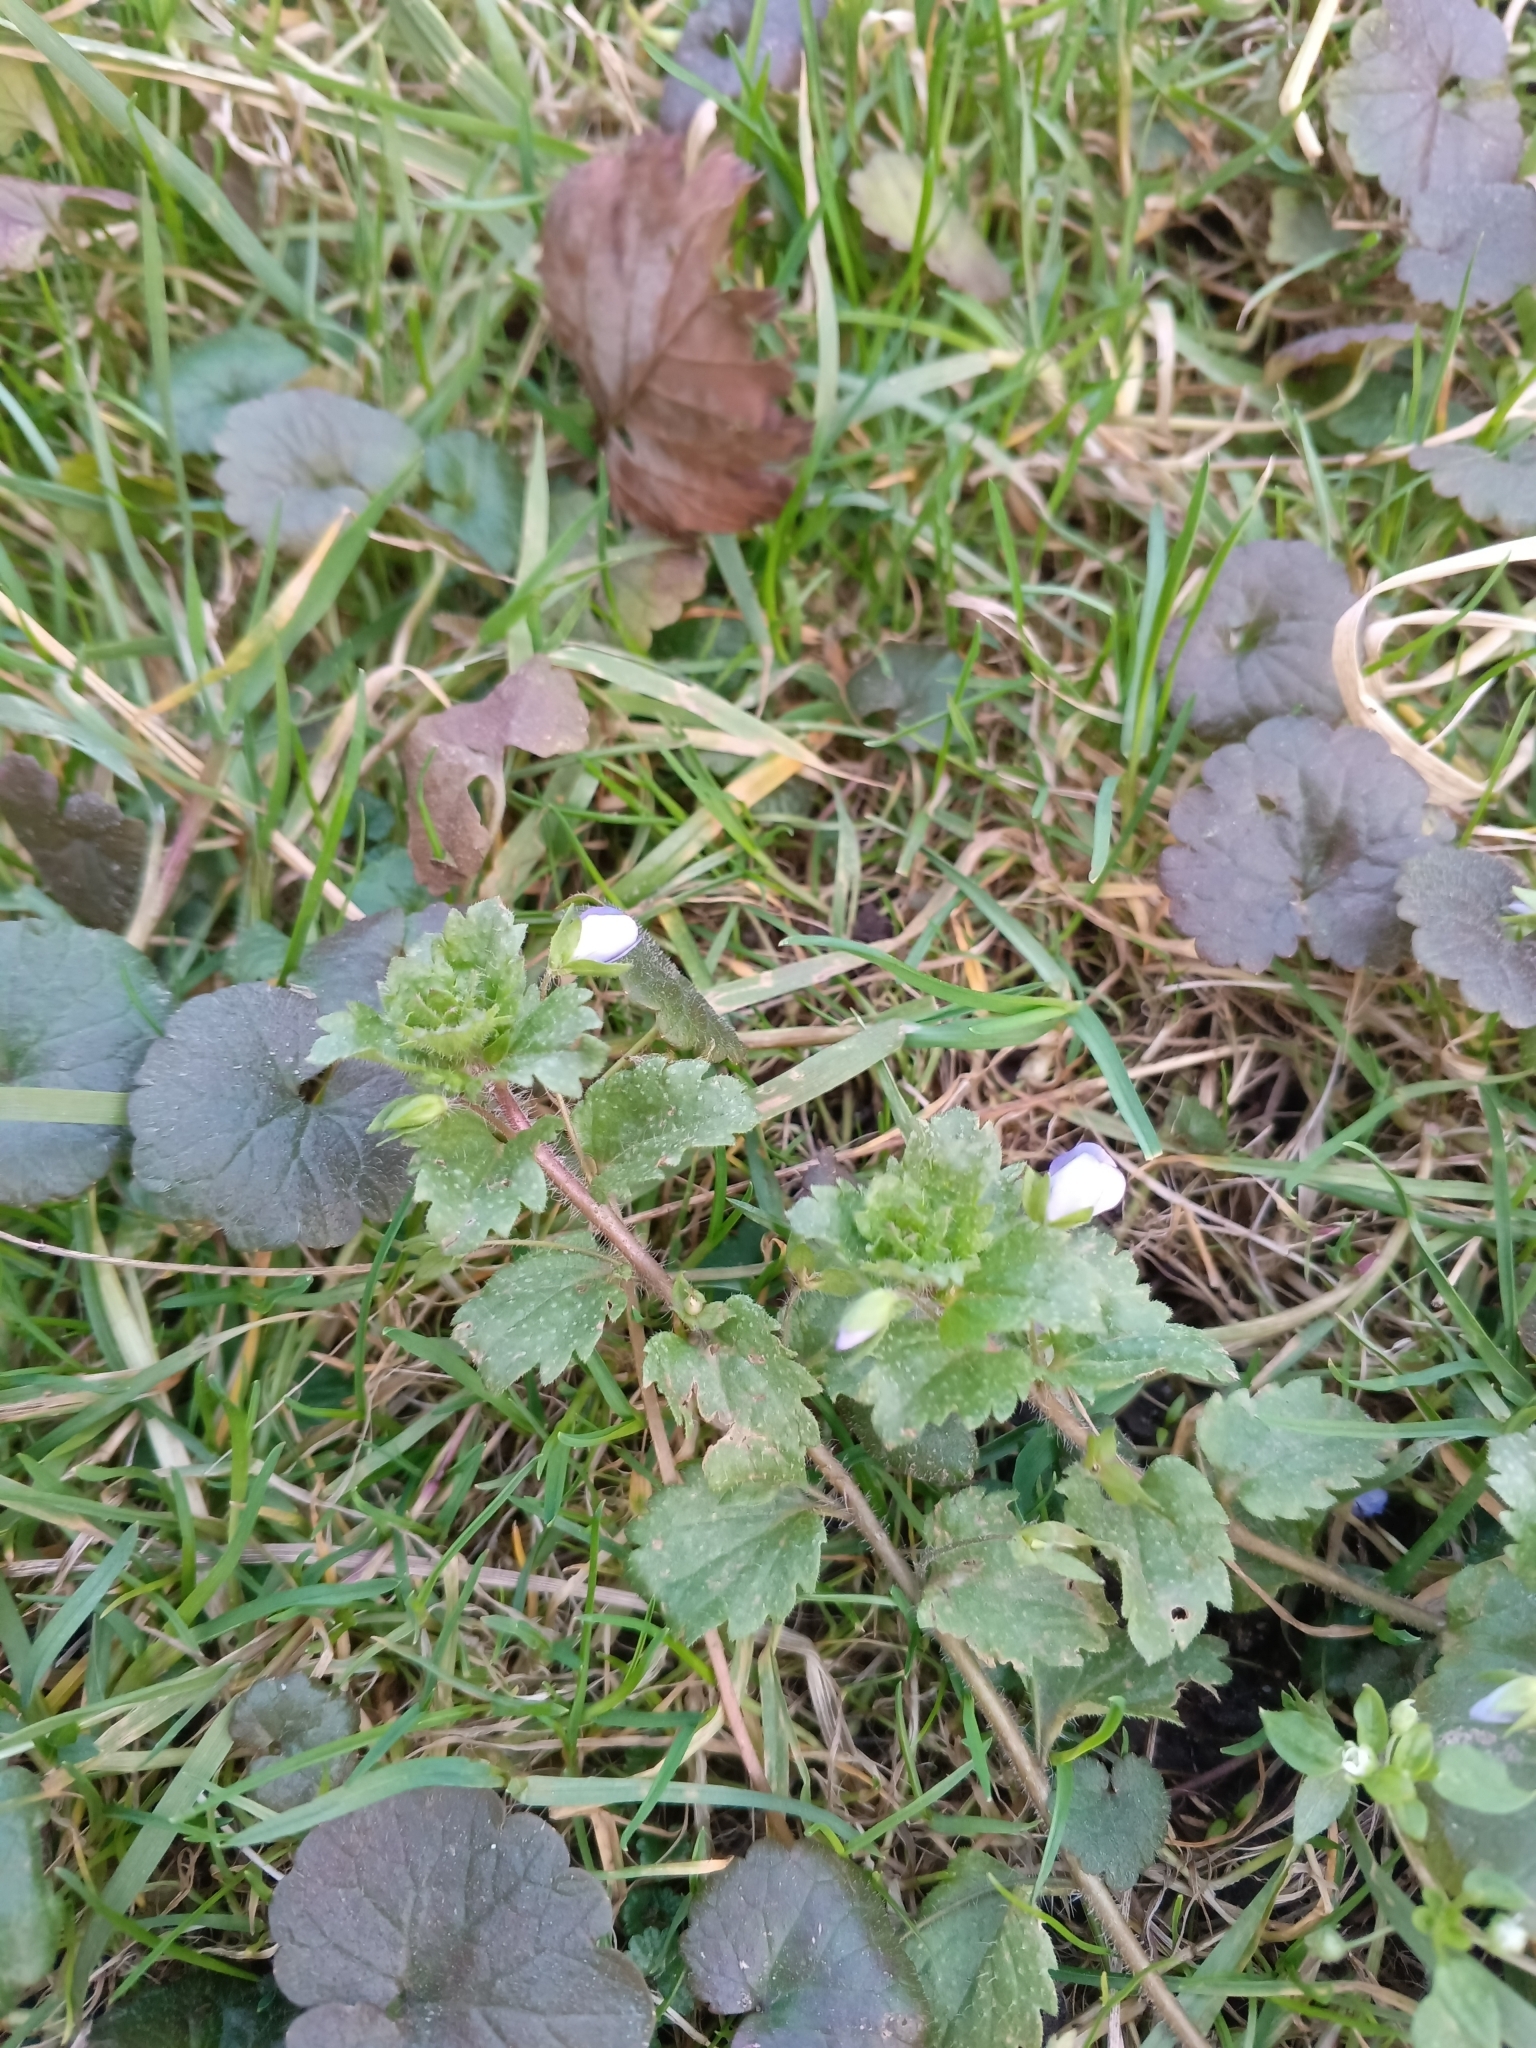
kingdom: Plantae
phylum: Tracheophyta
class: Magnoliopsida
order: Lamiales
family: Plantaginaceae
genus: Veronica
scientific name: Veronica persica
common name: Common field-speedwell
